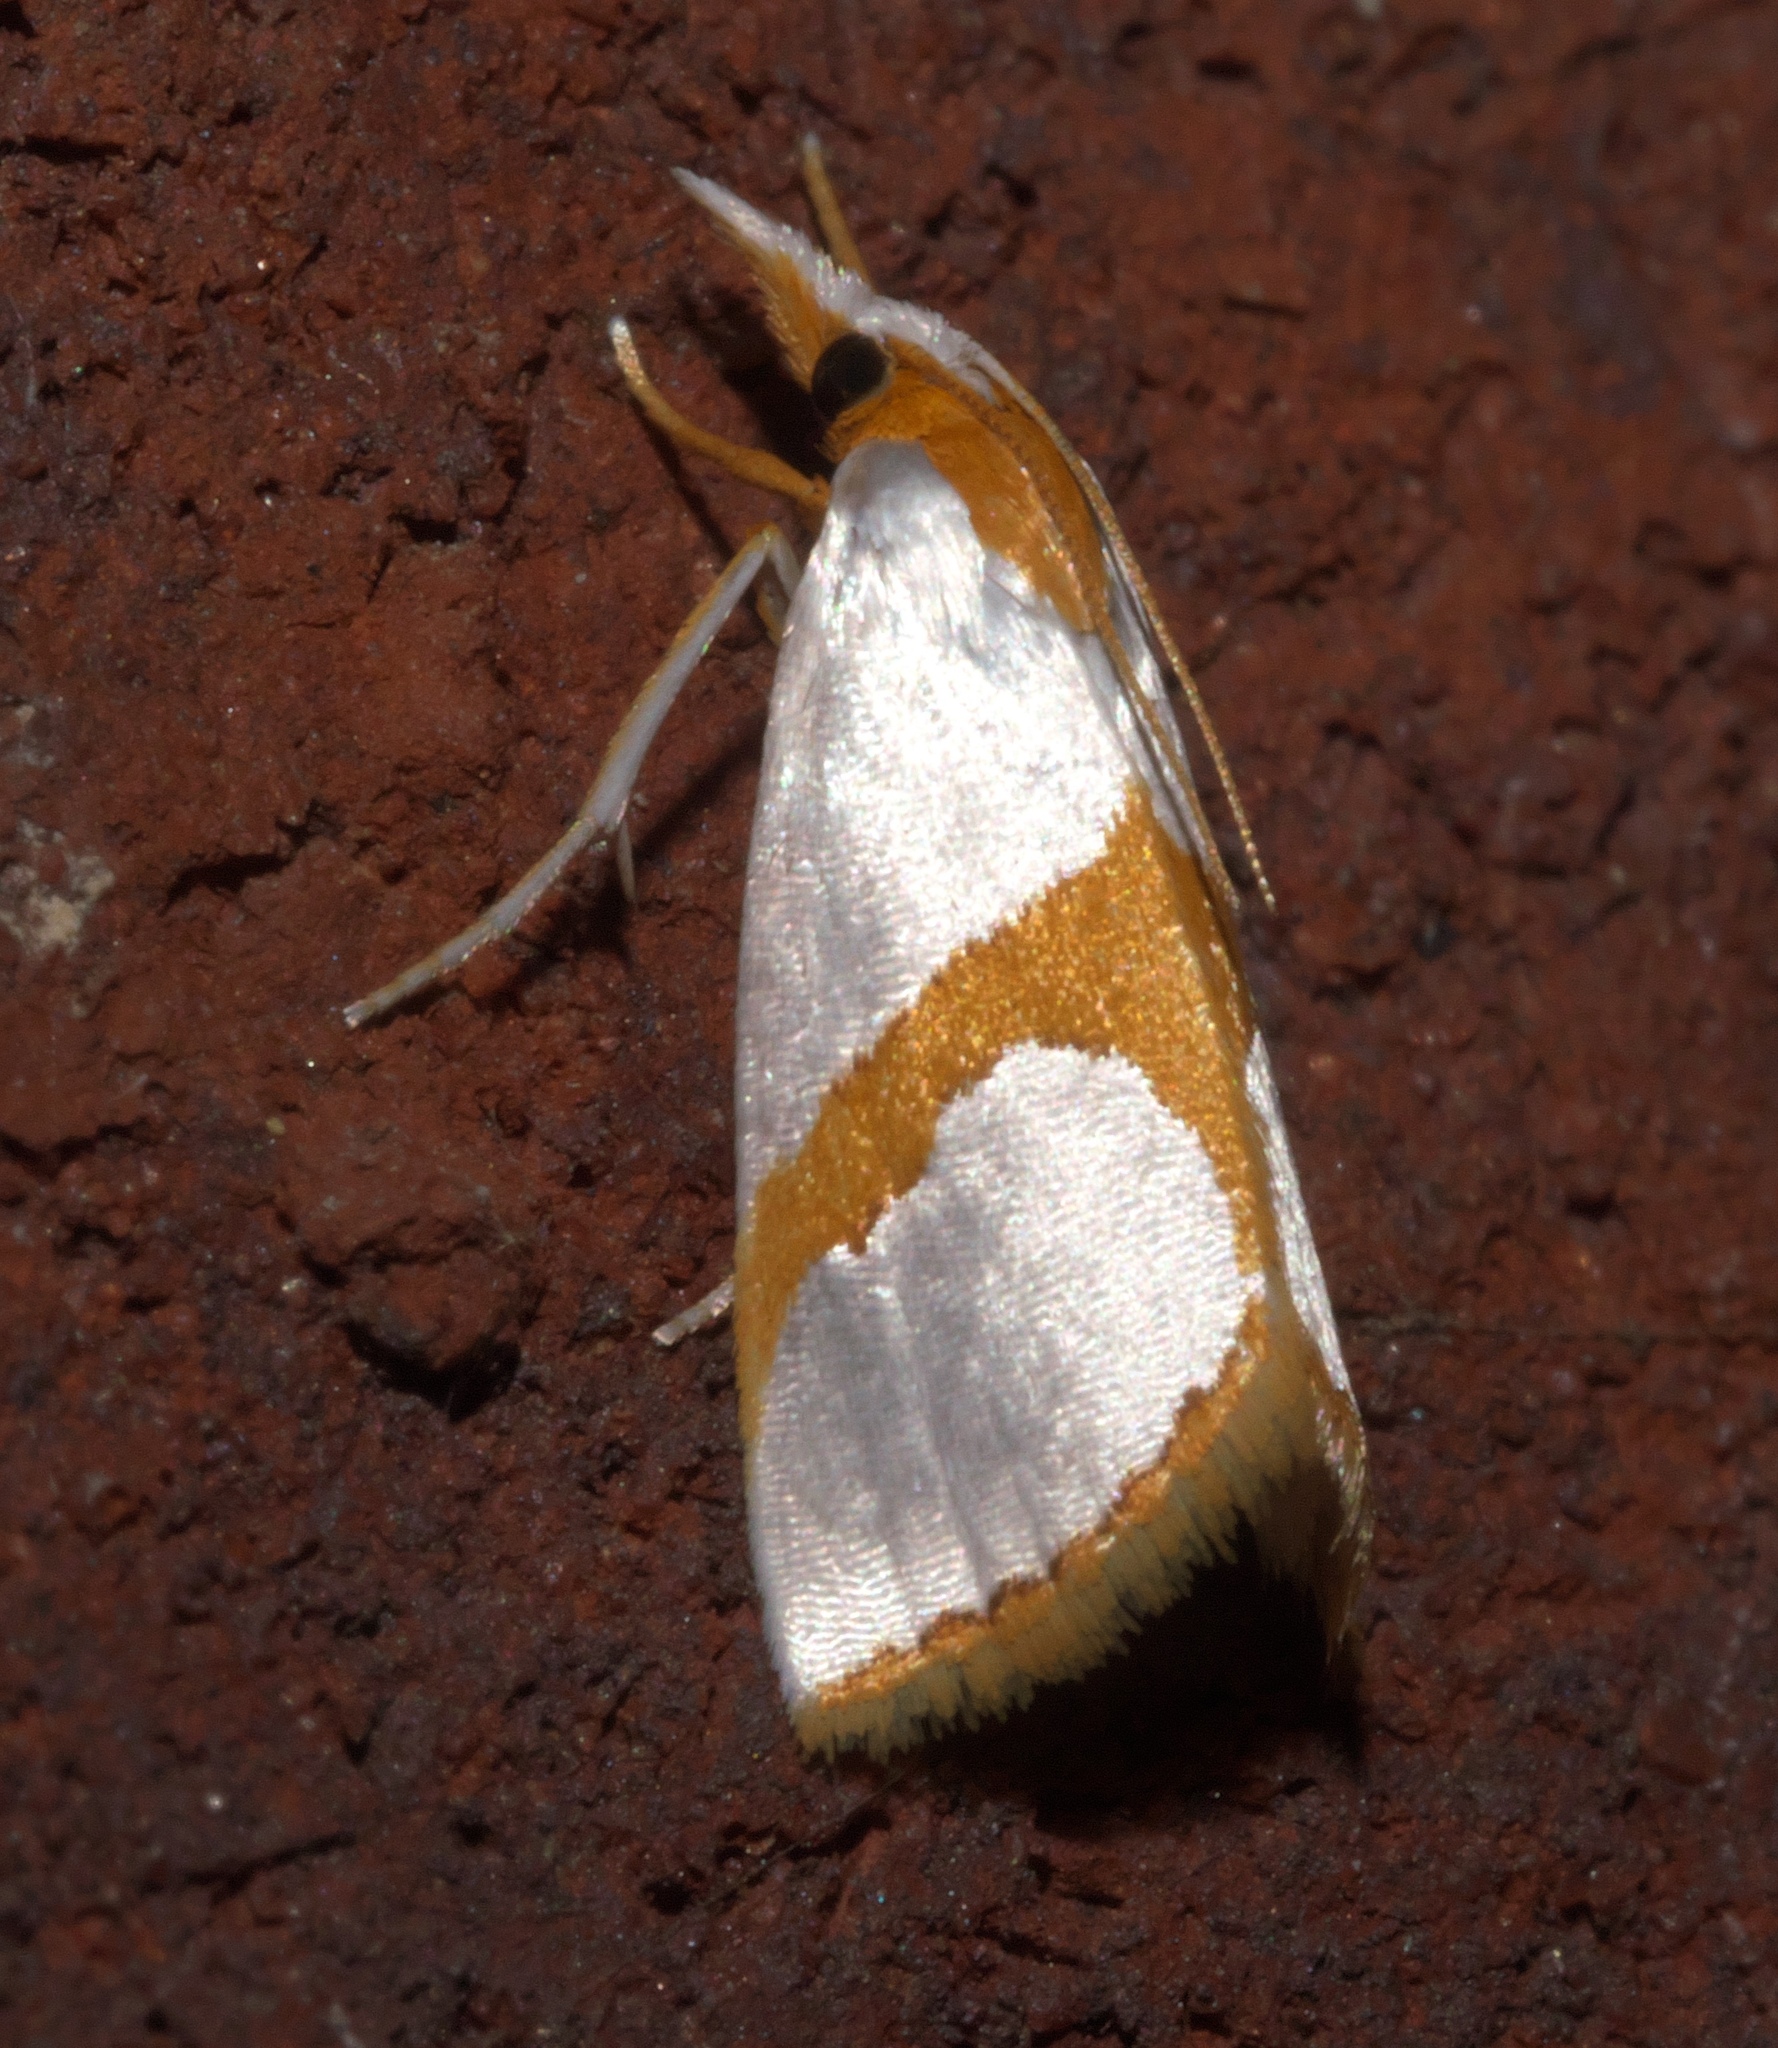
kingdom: Animalia
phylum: Arthropoda
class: Insecta
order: Lepidoptera
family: Crambidae
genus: Argyria
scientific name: Argyria auratella
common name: Curve-lined argyria moth
